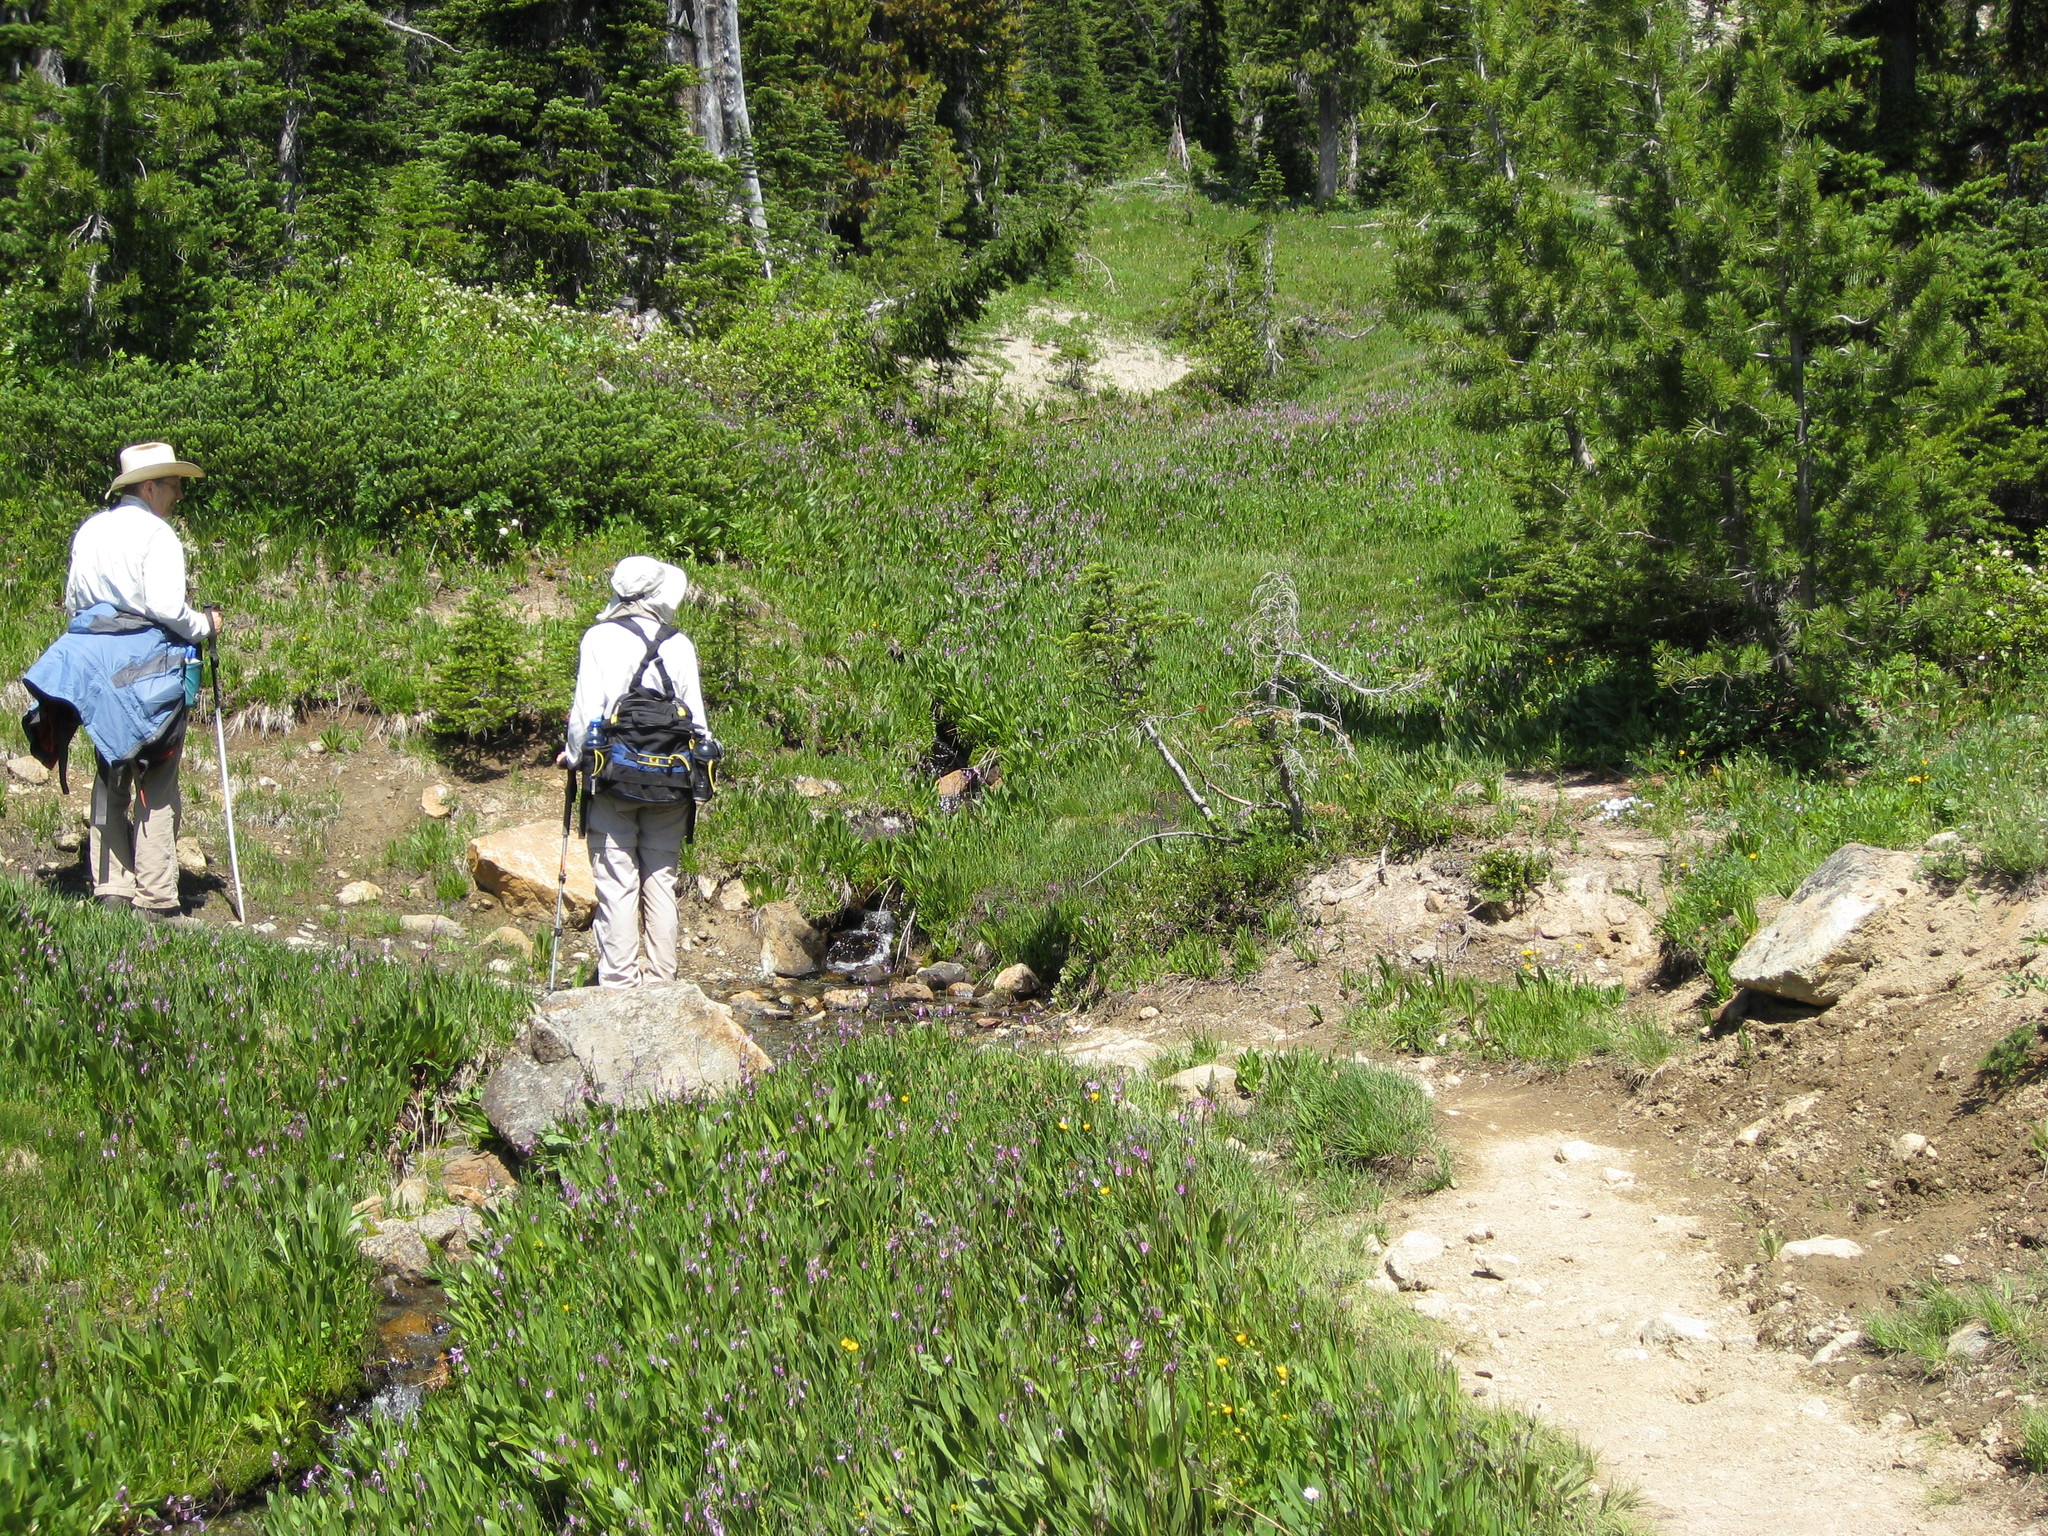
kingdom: Plantae
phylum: Tracheophyta
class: Magnoliopsida
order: Ericales
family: Primulaceae
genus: Dodecatheon
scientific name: Dodecatheon jeffreyanum
